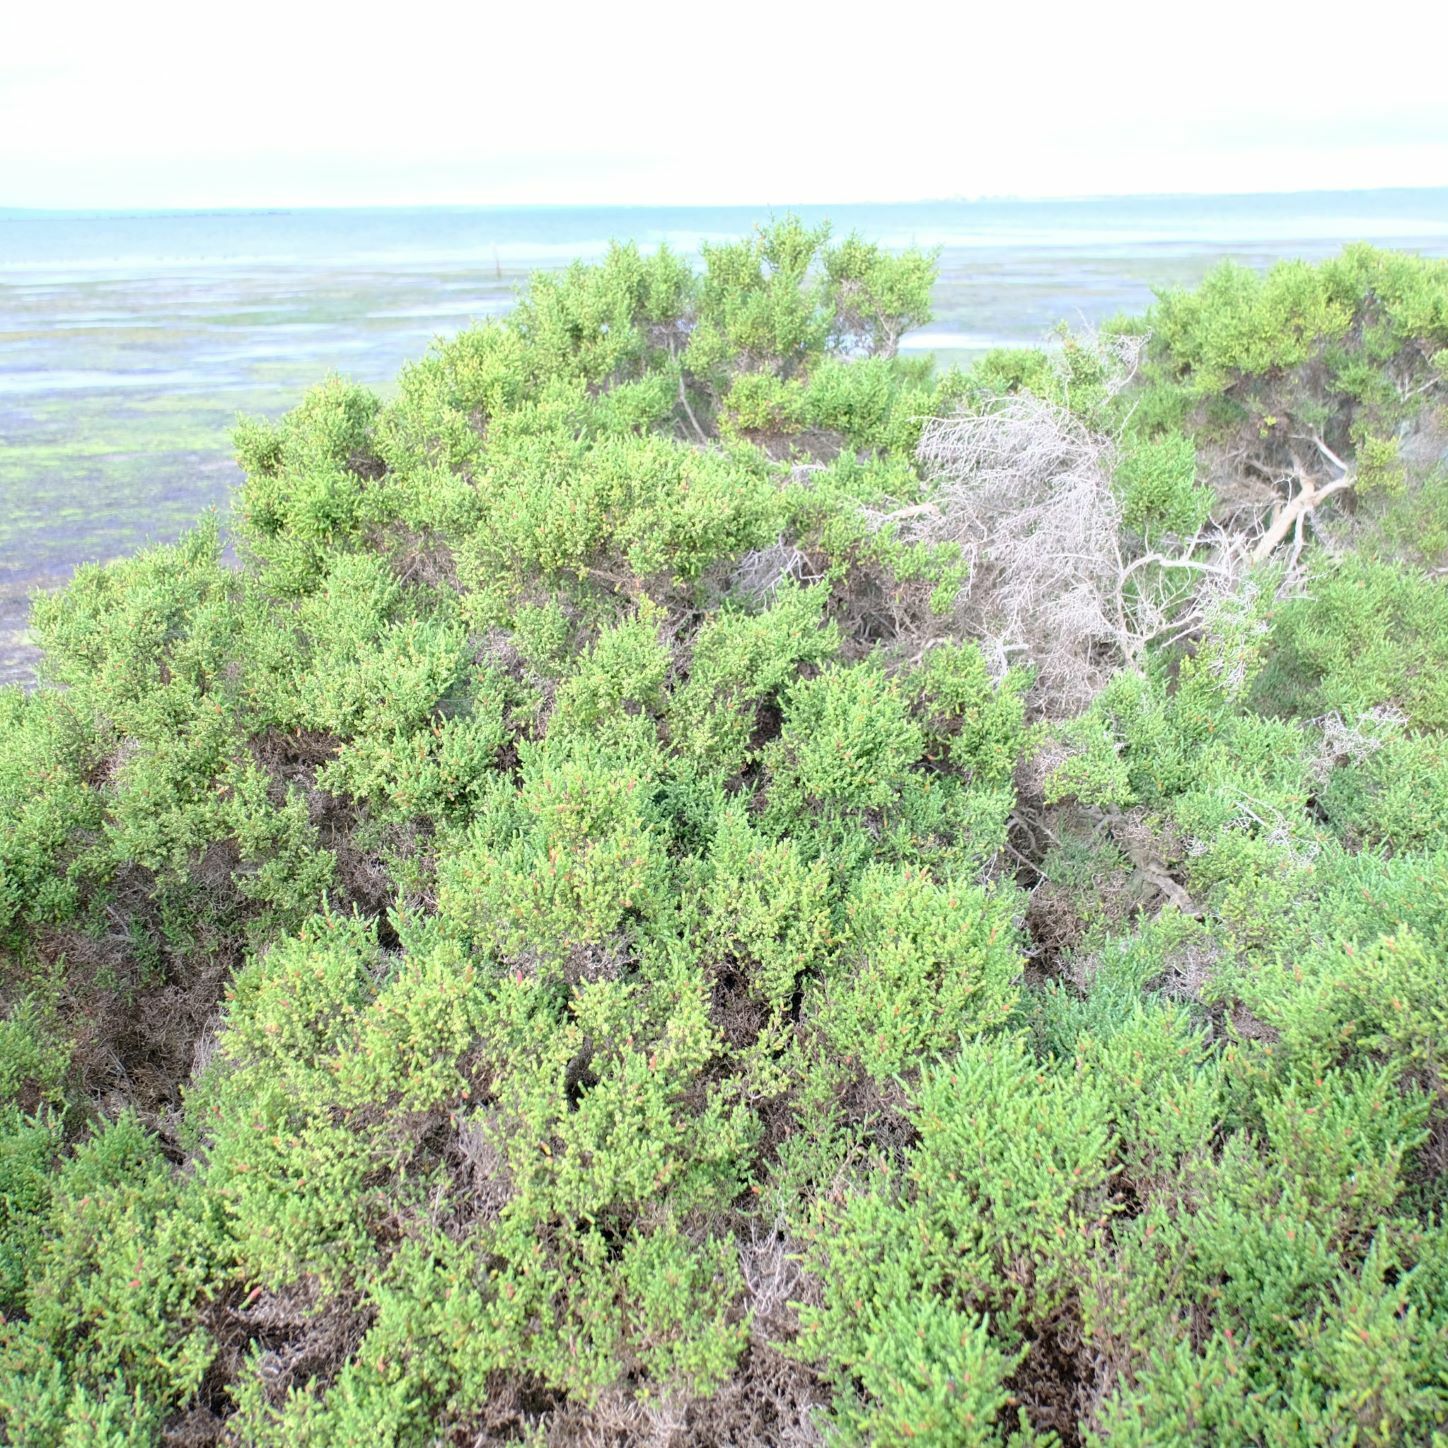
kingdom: Plantae
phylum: Tracheophyta
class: Magnoliopsida
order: Caryophyllales
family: Amaranthaceae
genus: Tecticornia
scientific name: Tecticornia arbuscula
